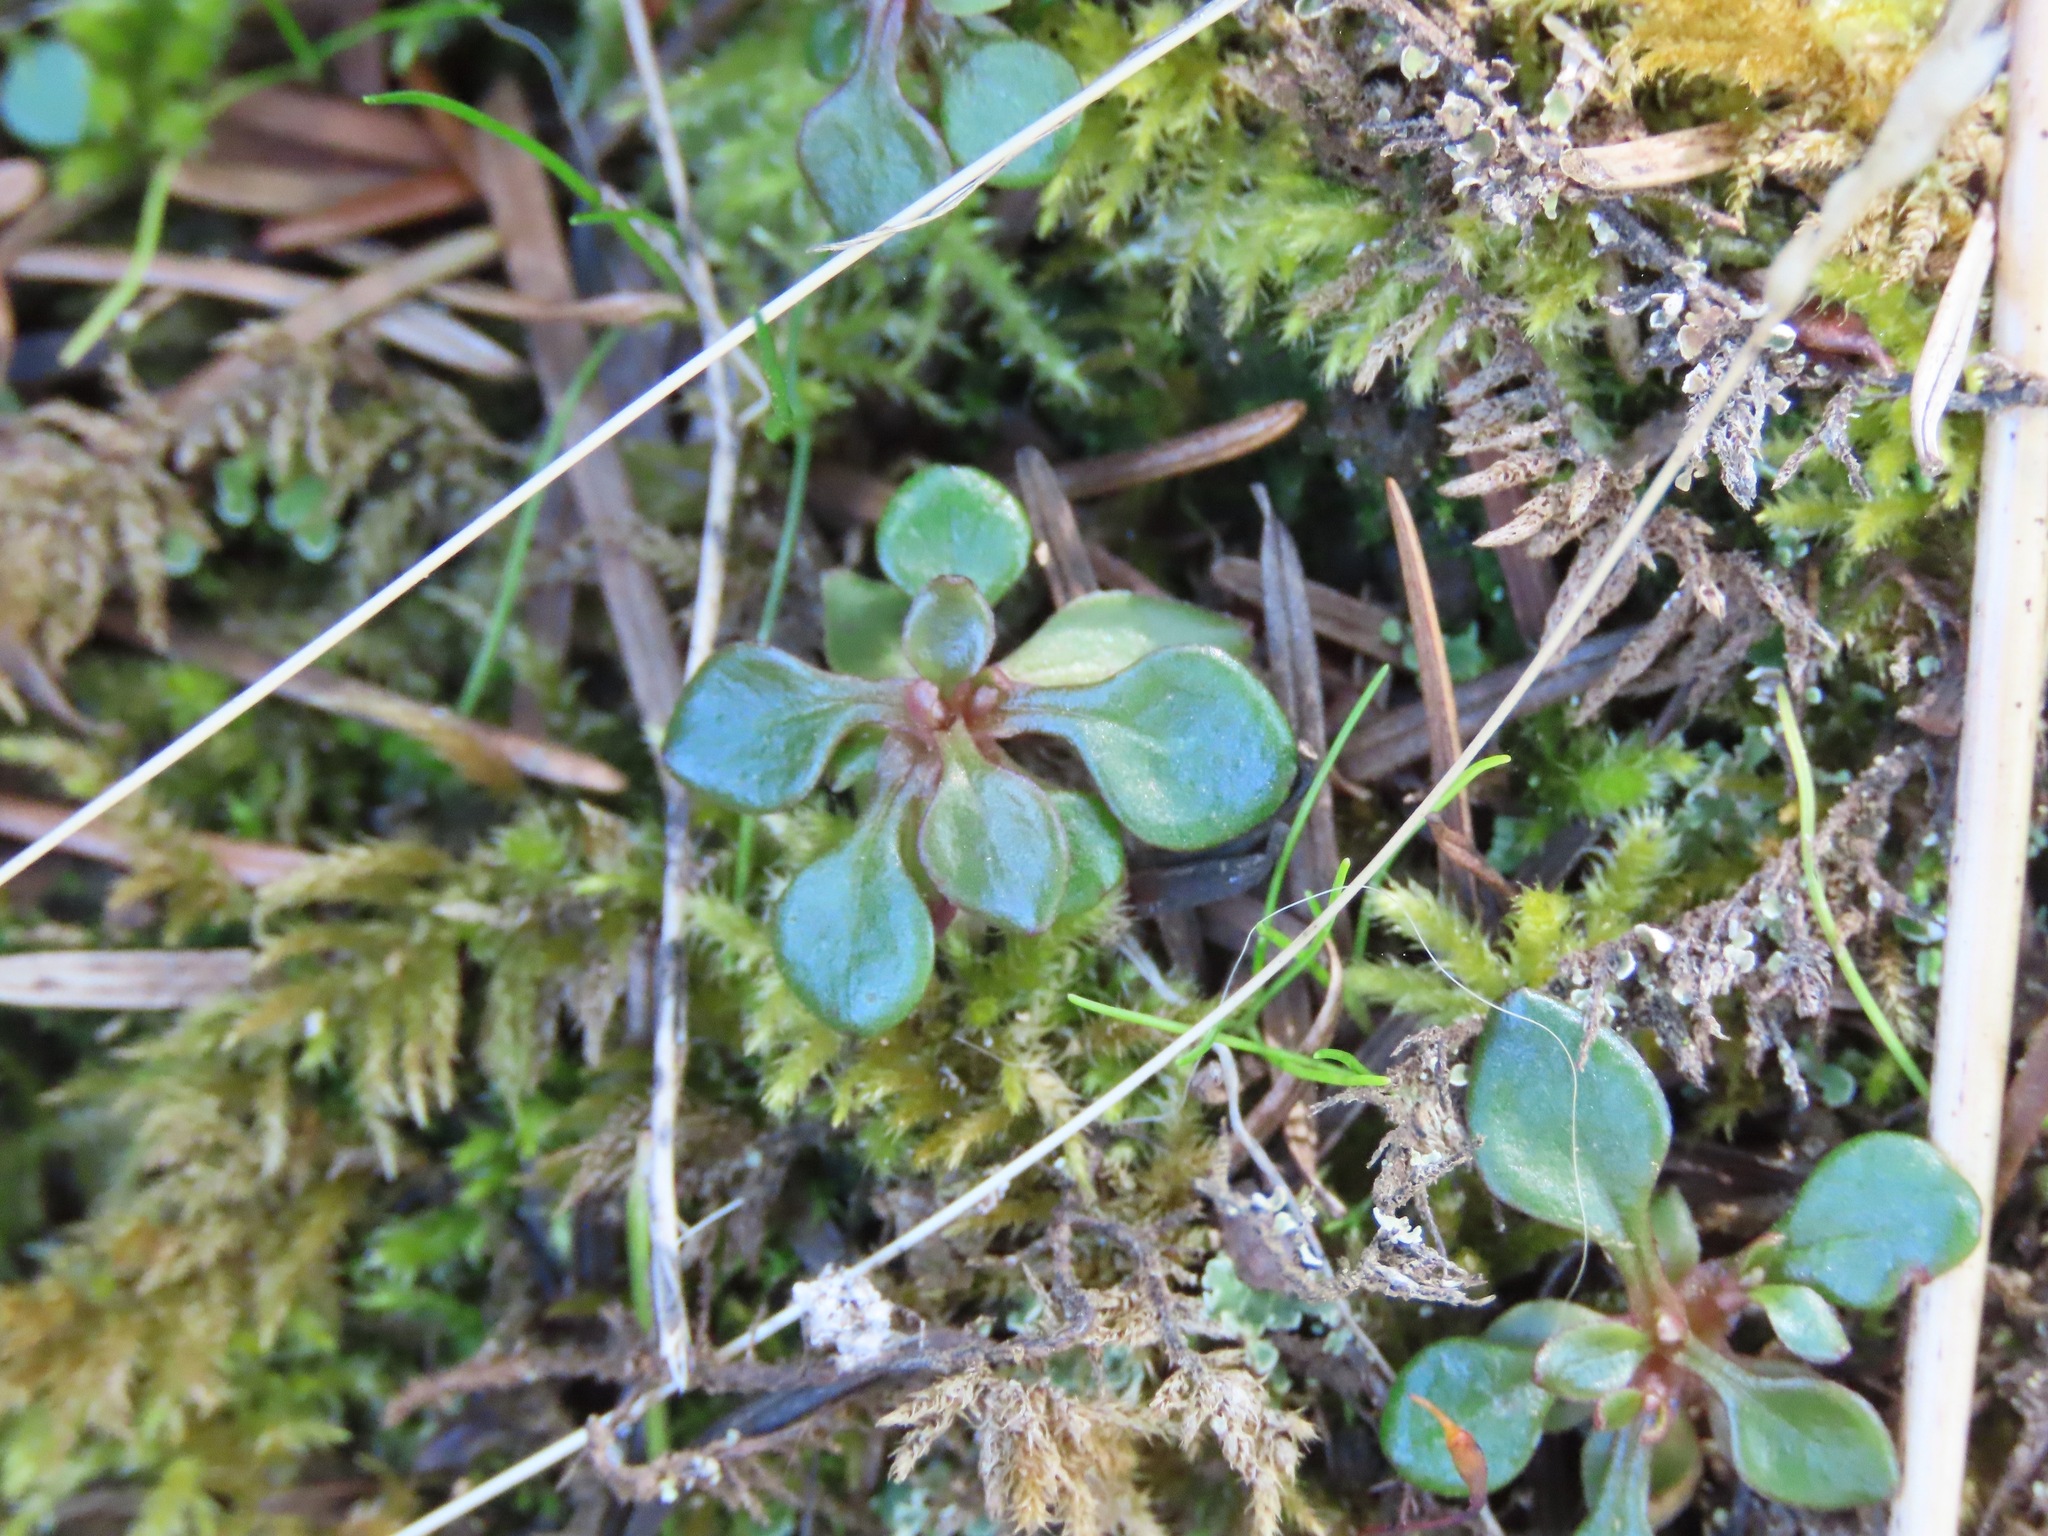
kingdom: Plantae
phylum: Tracheophyta
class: Magnoliopsida
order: Caryophyllales
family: Montiaceae
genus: Montia
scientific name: Montia parvifolia
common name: Small-leaved blinks
